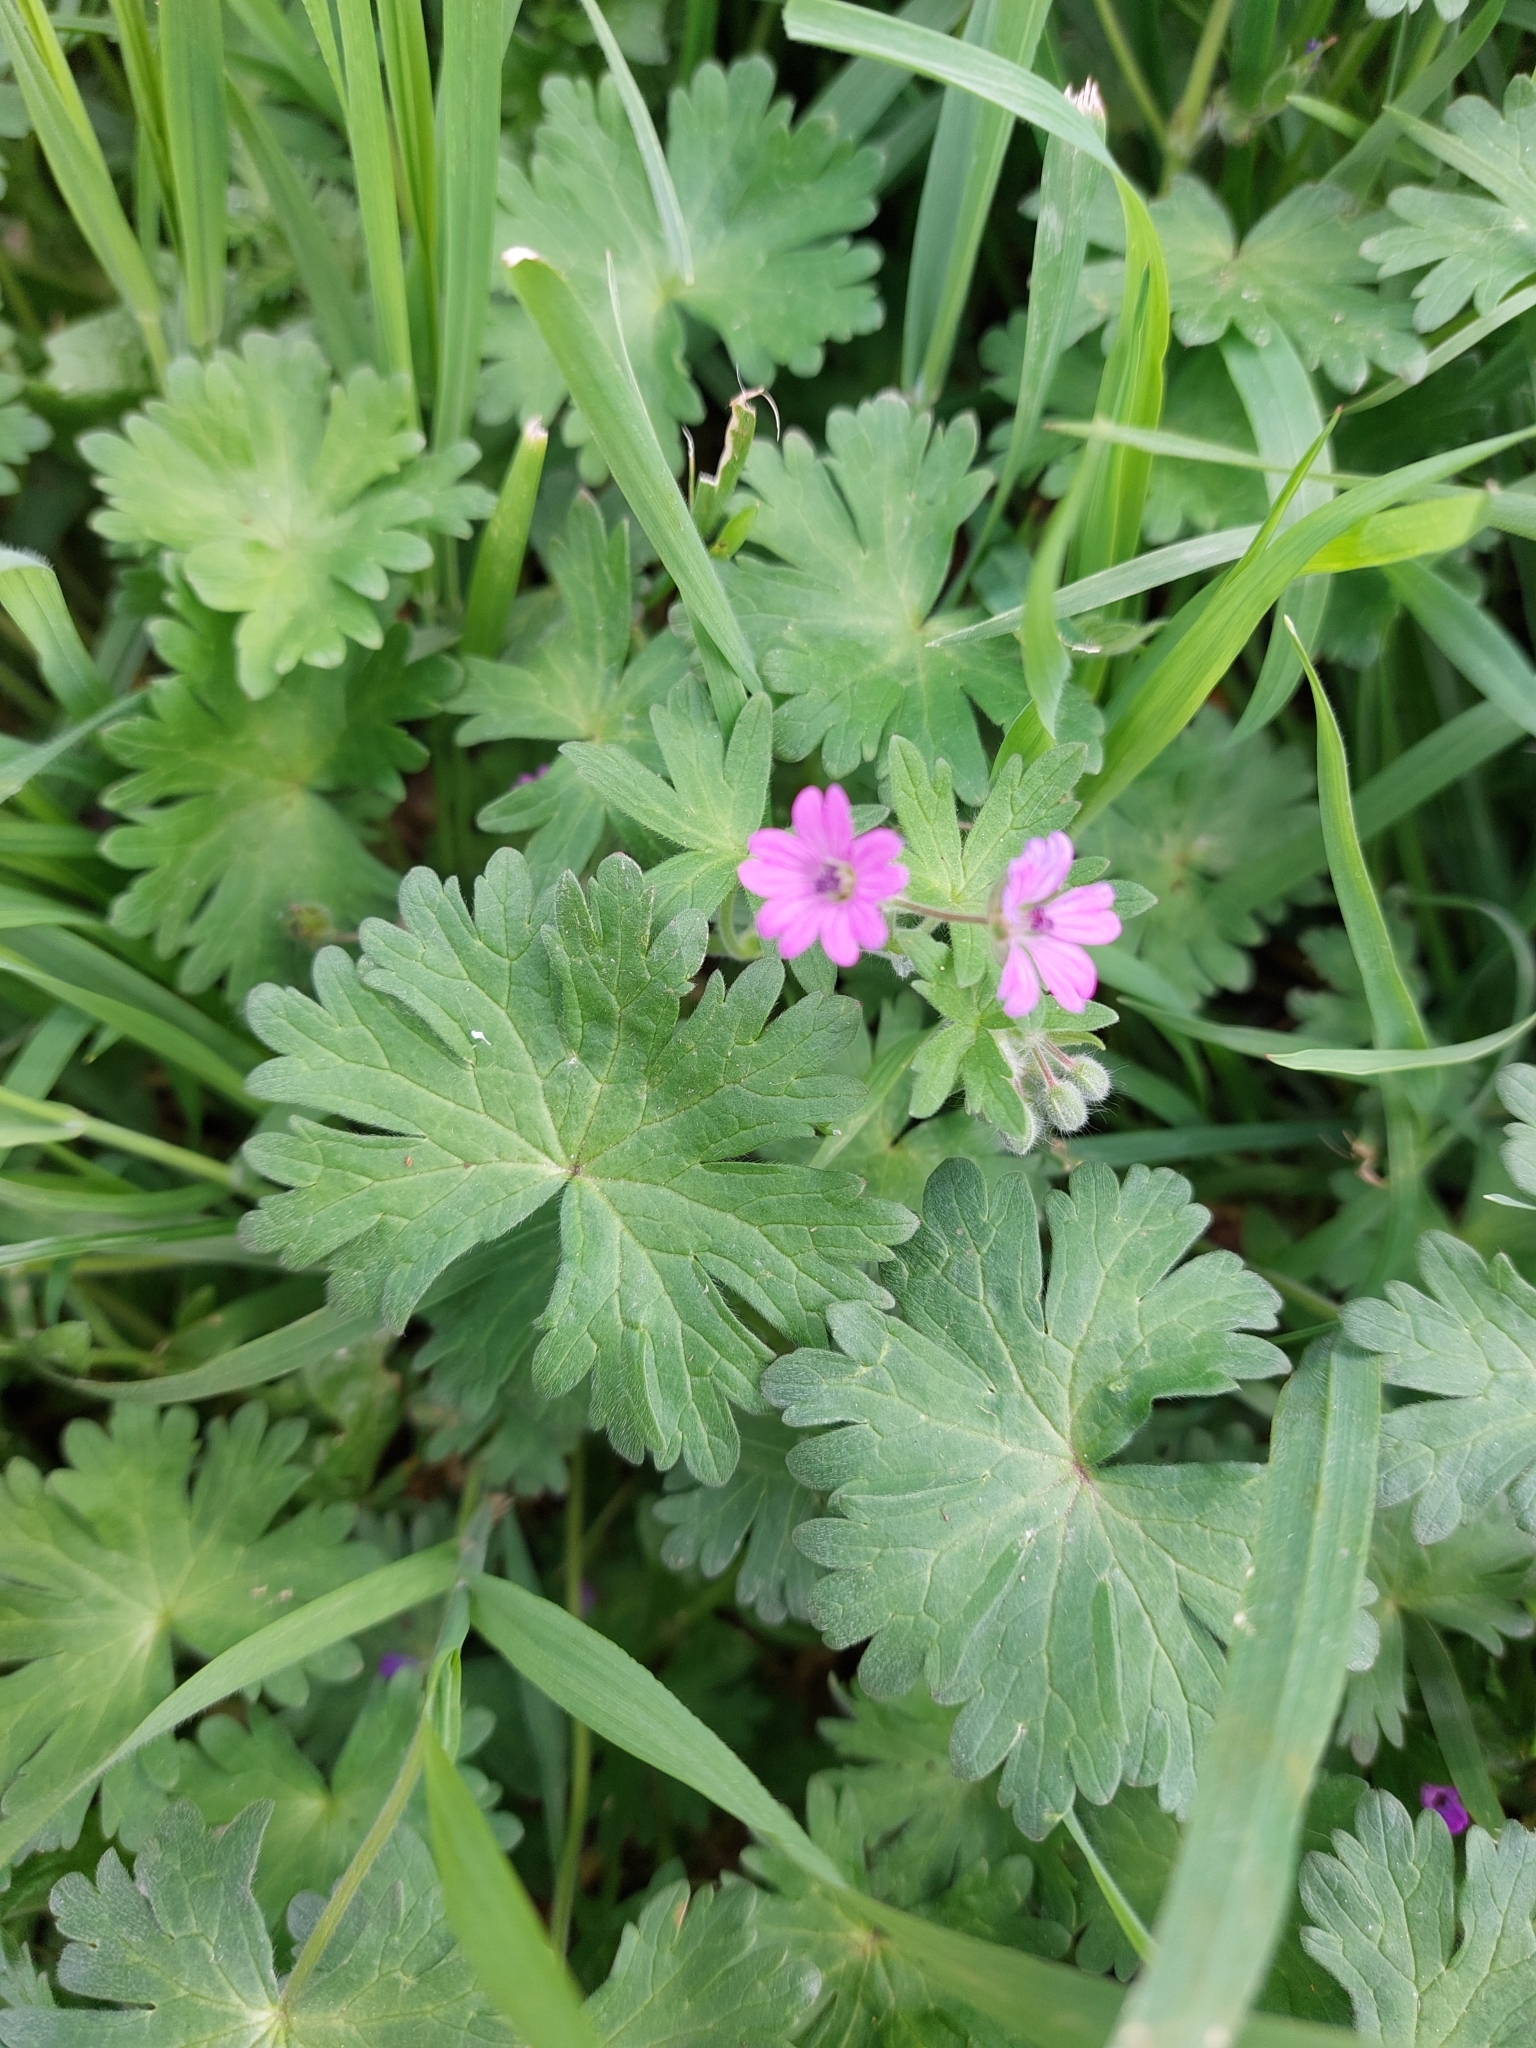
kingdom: Plantae
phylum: Tracheophyta
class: Magnoliopsida
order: Geraniales
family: Geraniaceae
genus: Geranium
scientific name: Geranium molle
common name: Dove's-foot crane's-bill
